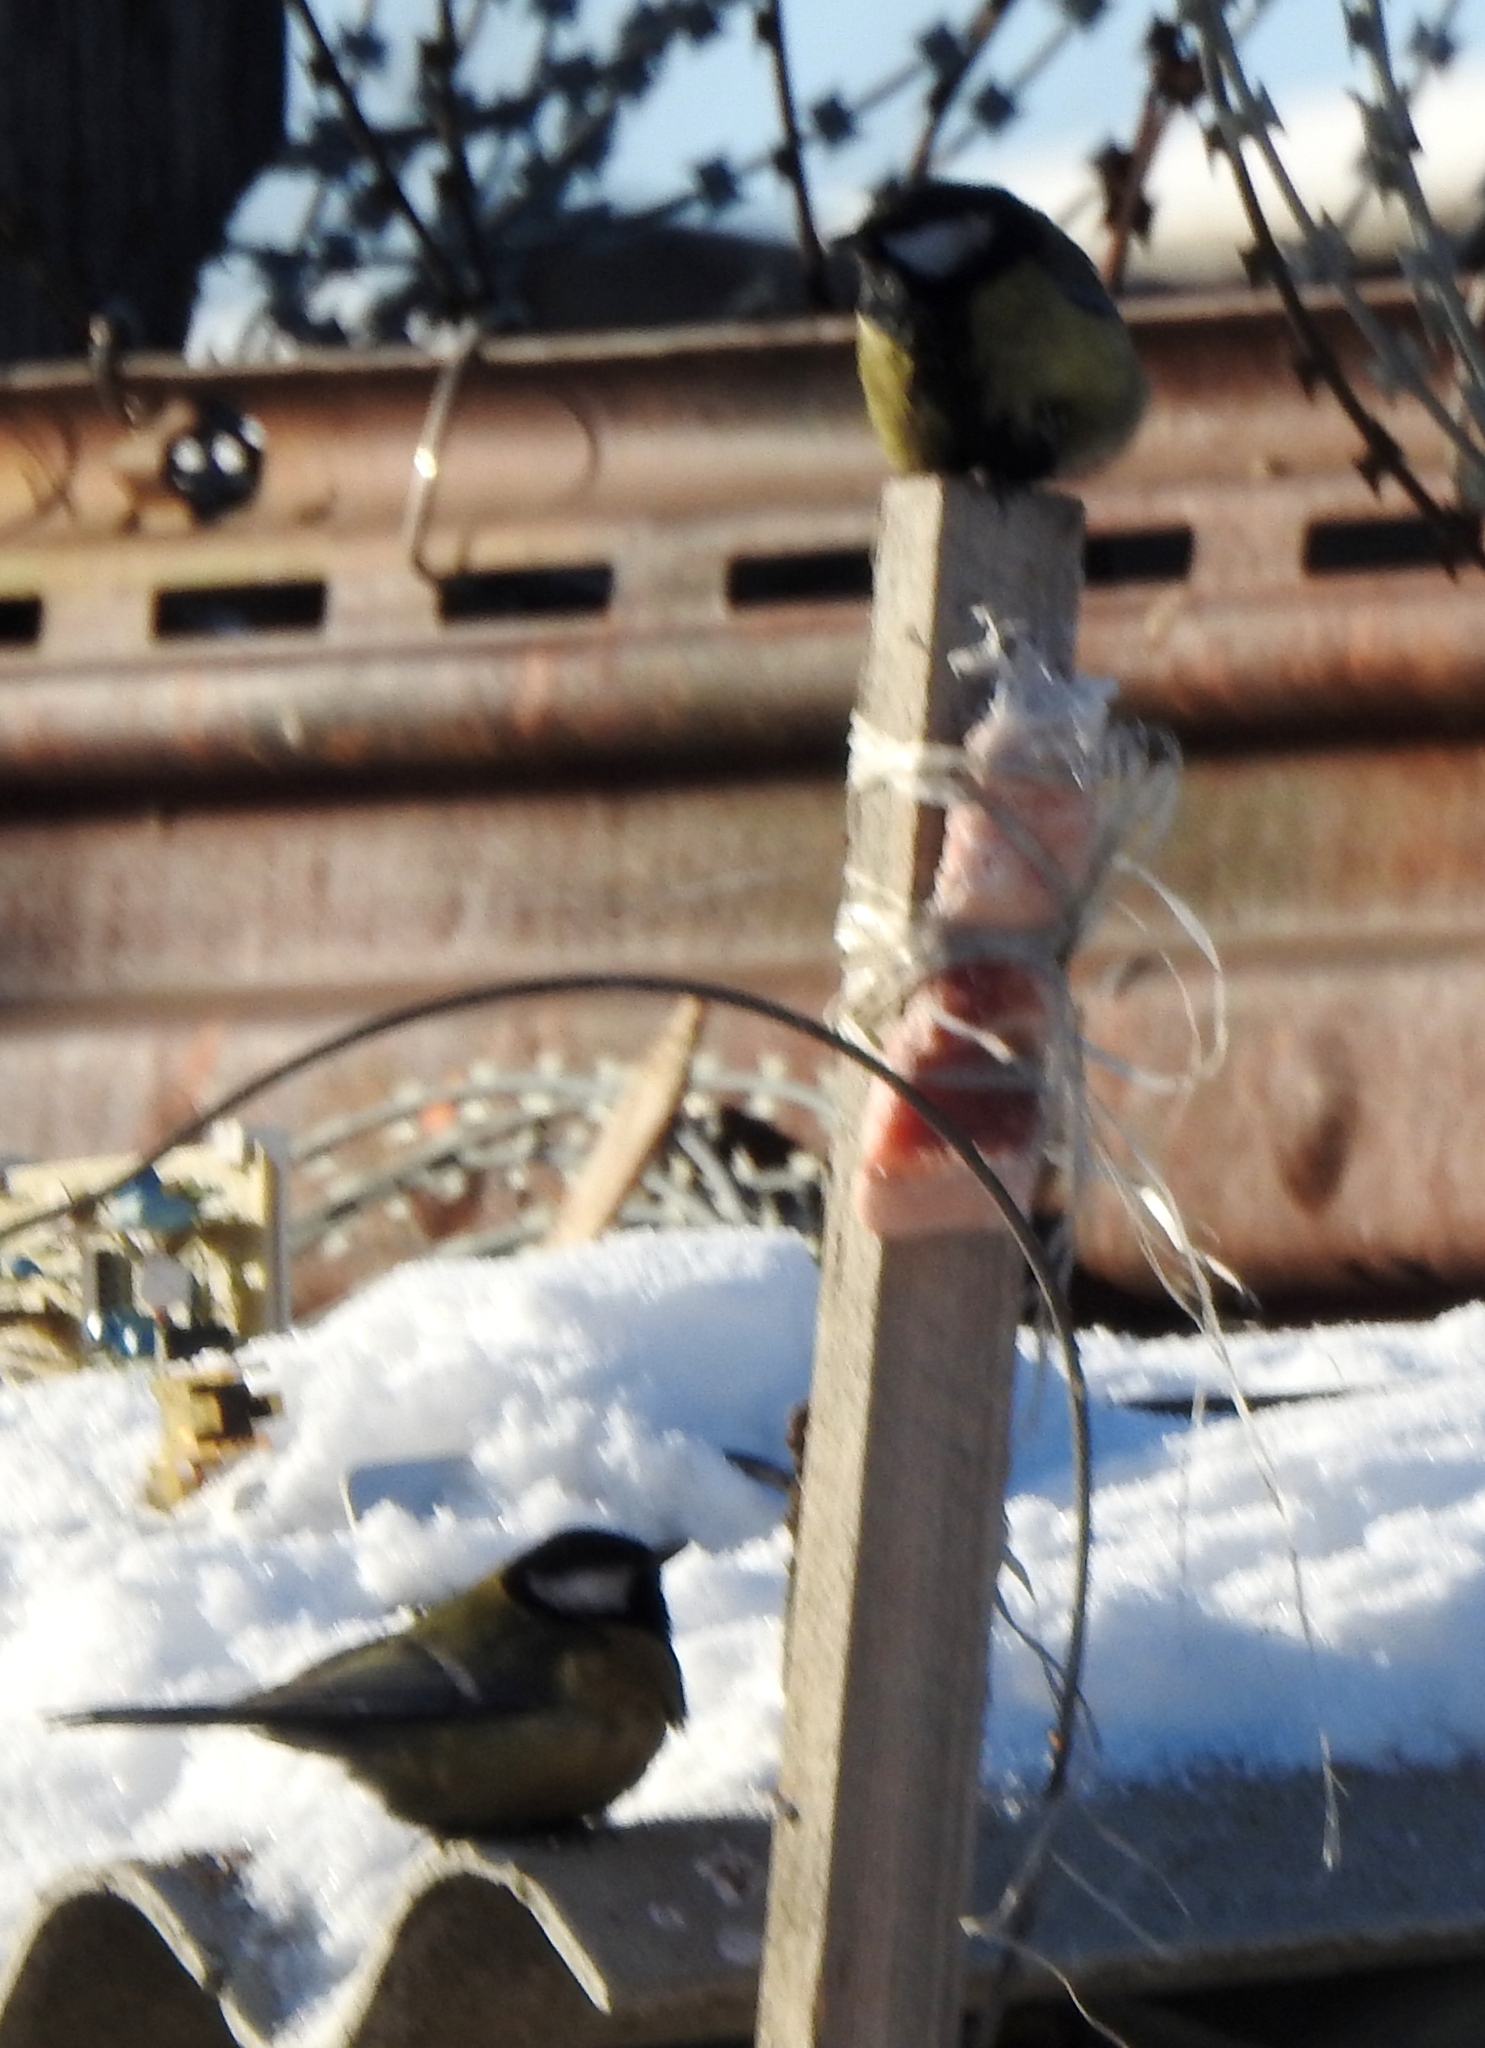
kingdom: Animalia
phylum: Chordata
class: Aves
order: Passeriformes
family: Paridae
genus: Parus
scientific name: Parus major
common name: Great tit
